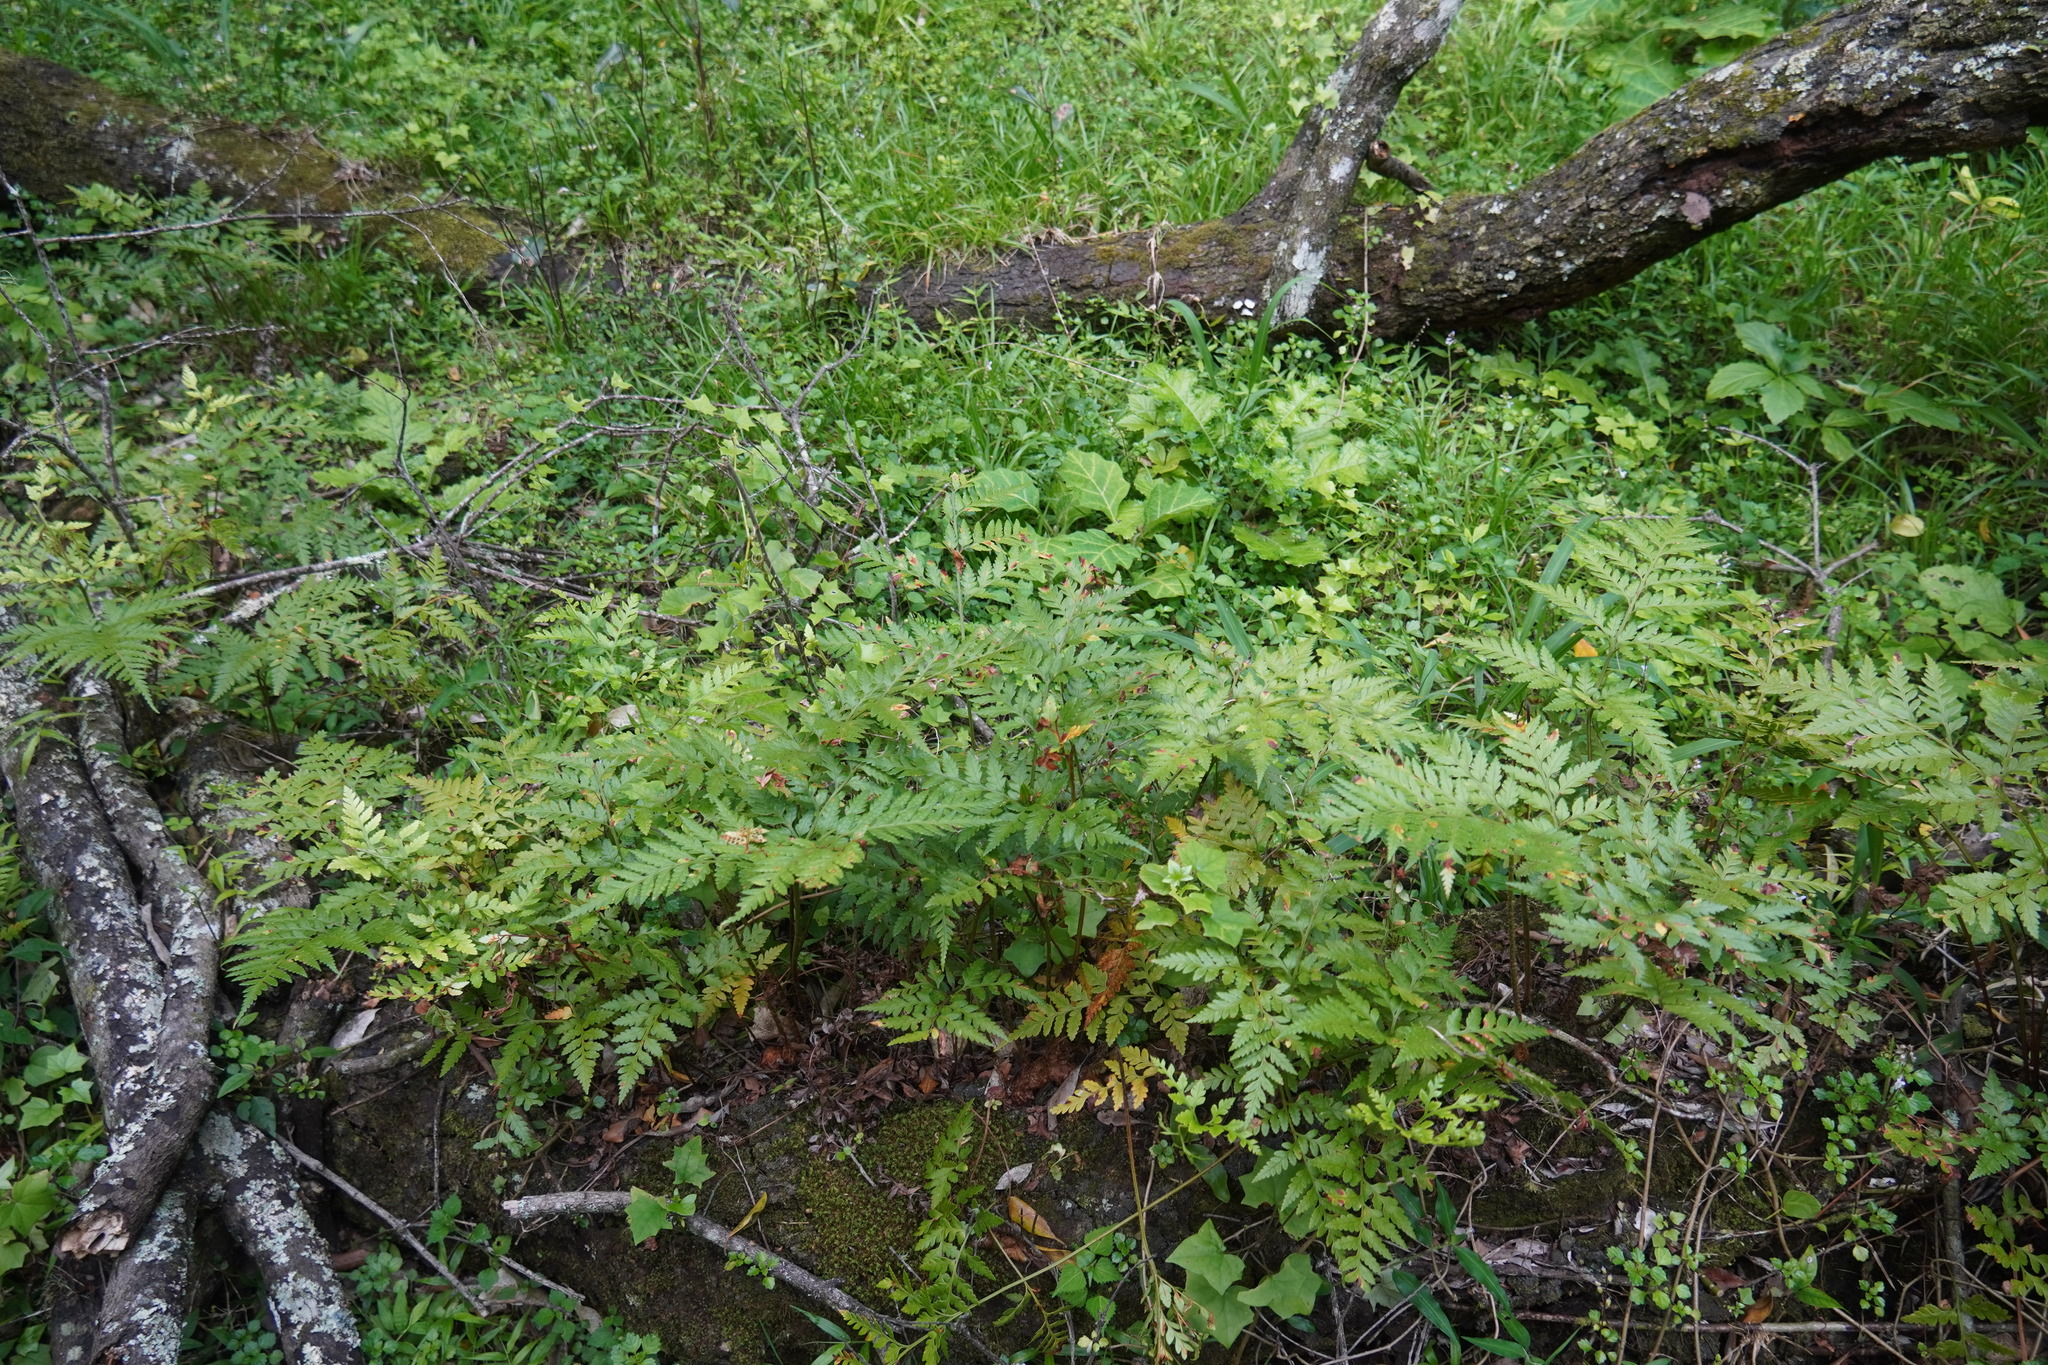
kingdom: Plantae
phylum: Tracheophyta
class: Polypodiopsida
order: Polypodiales
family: Dryopteridaceae
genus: Rumohra
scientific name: Rumohra adiantiformis
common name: Leather fern
